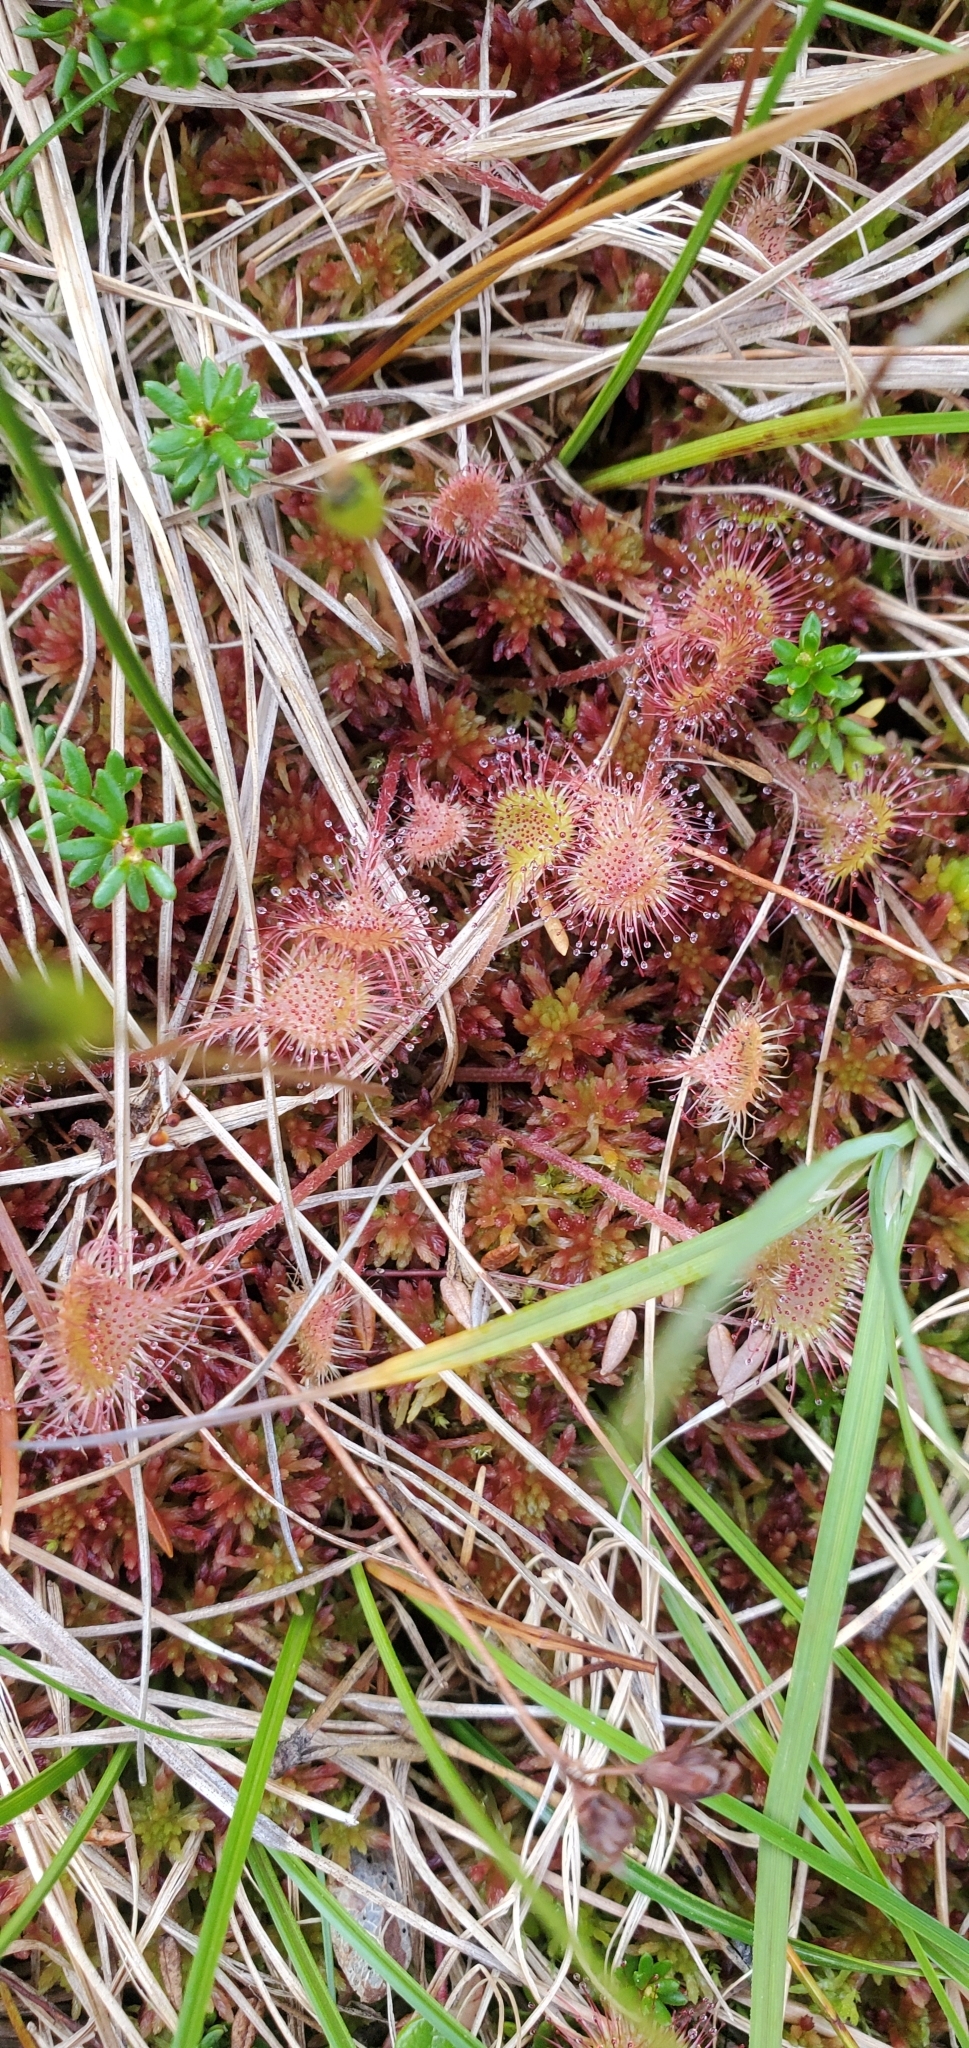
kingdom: Plantae
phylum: Tracheophyta
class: Magnoliopsida
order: Caryophyllales
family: Droseraceae
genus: Drosera
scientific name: Drosera rotundifolia
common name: Round-leaved sundew
